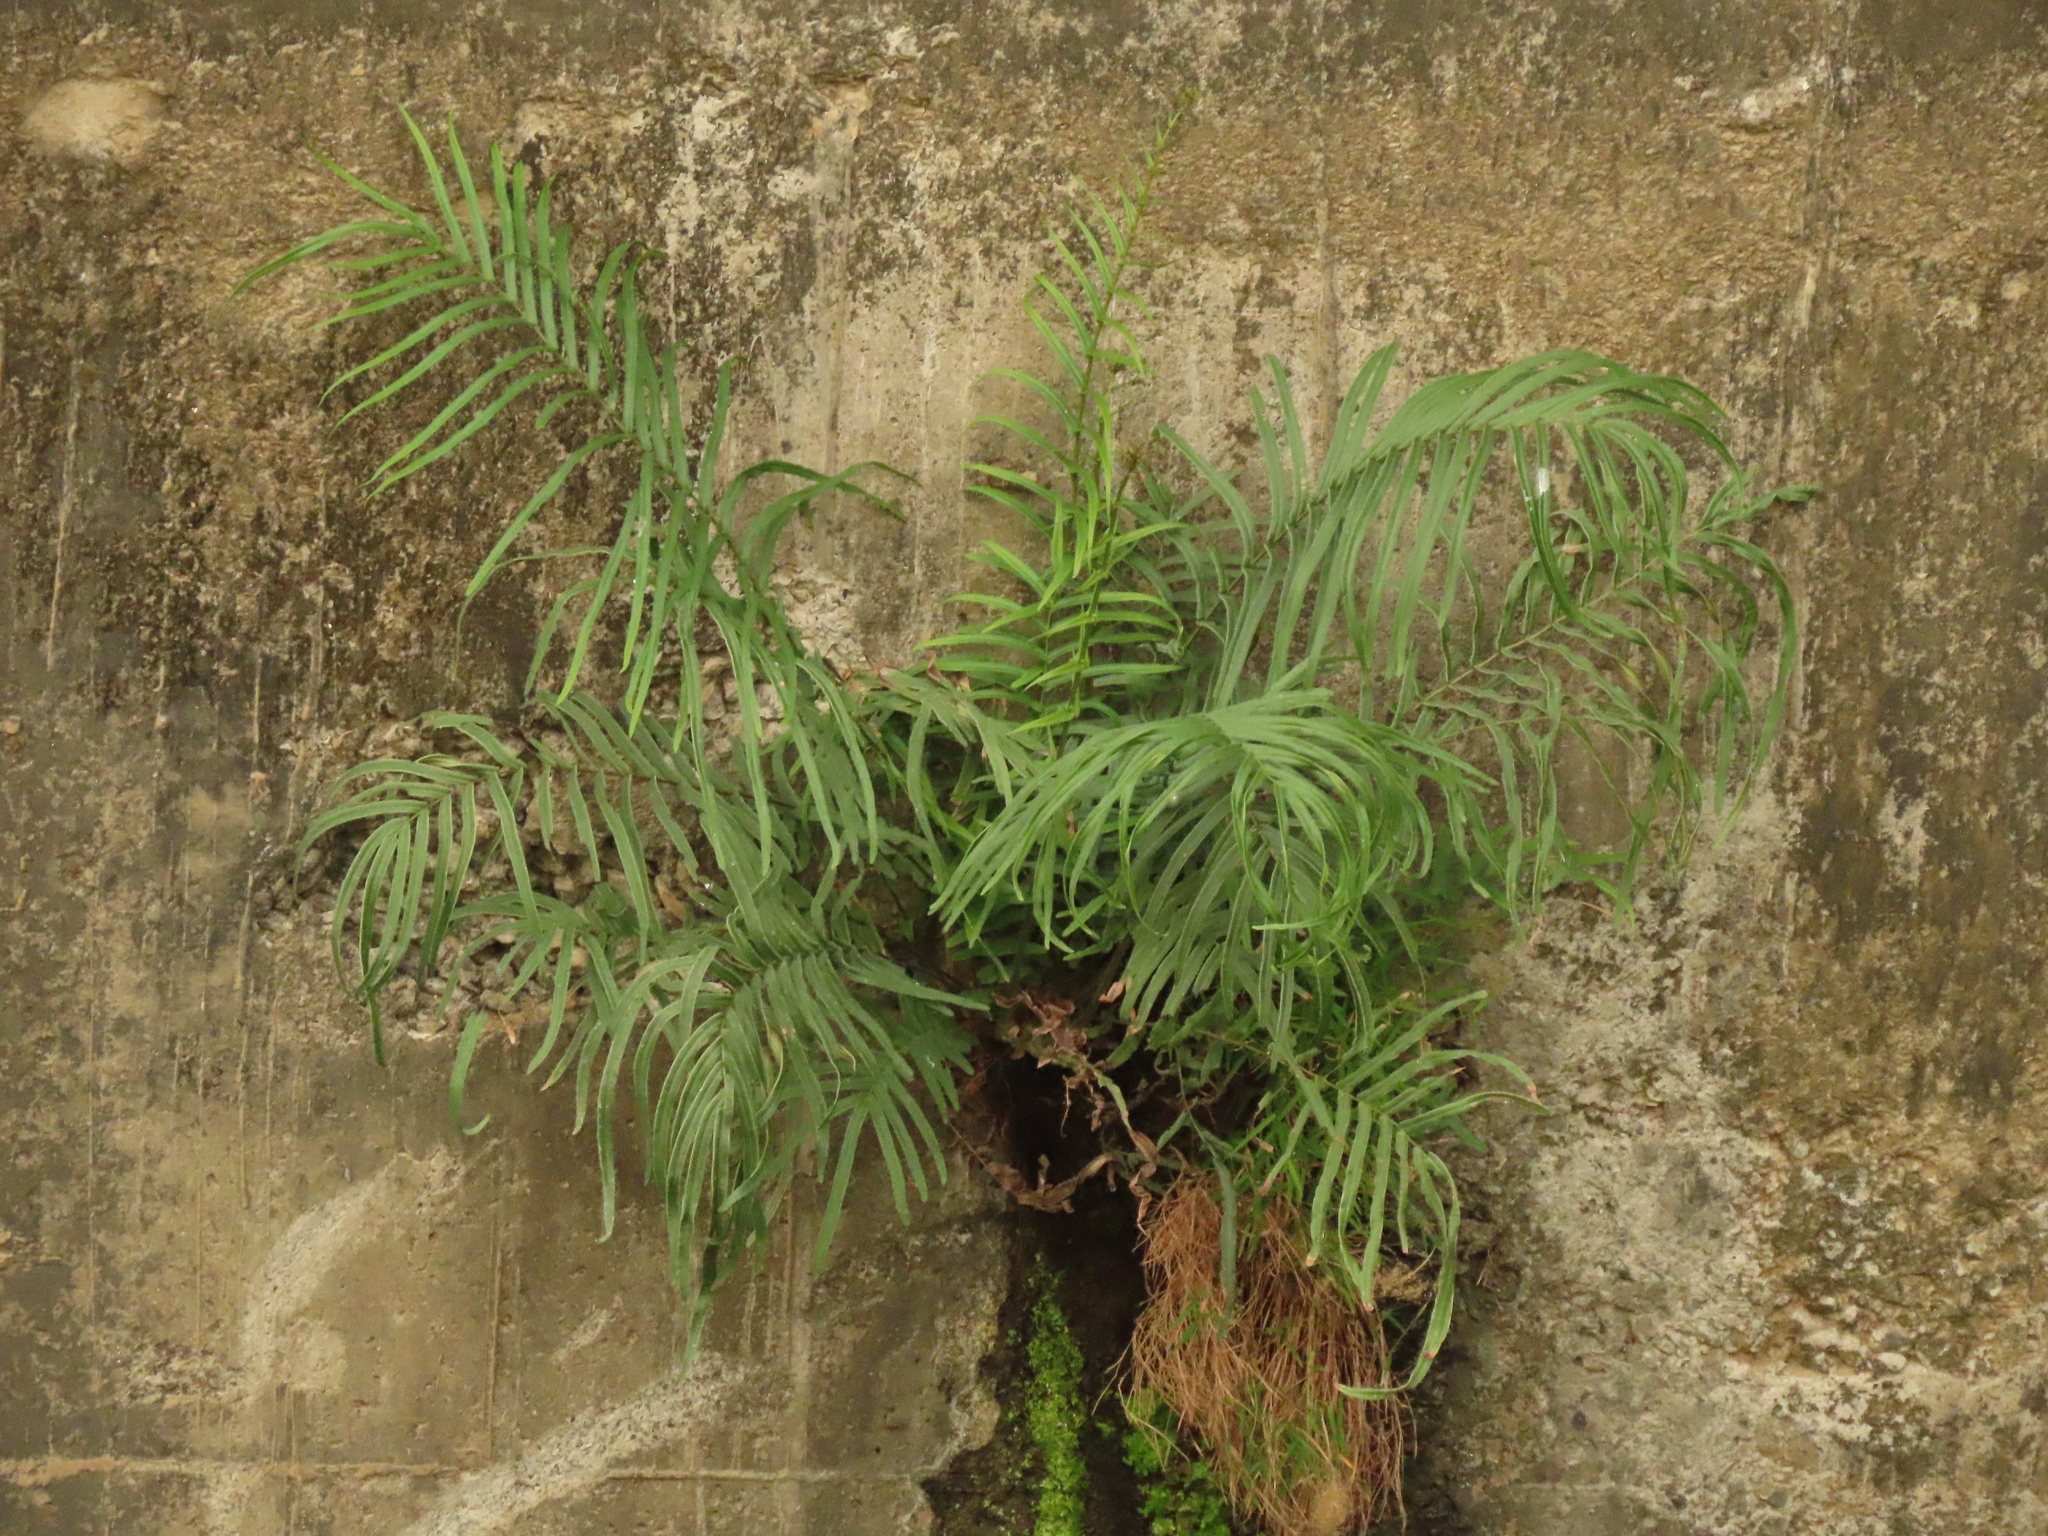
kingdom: Plantae
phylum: Tracheophyta
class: Polypodiopsida
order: Polypodiales
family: Pteridaceae
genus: Pteris
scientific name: Pteris vittata
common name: Ladder brake
